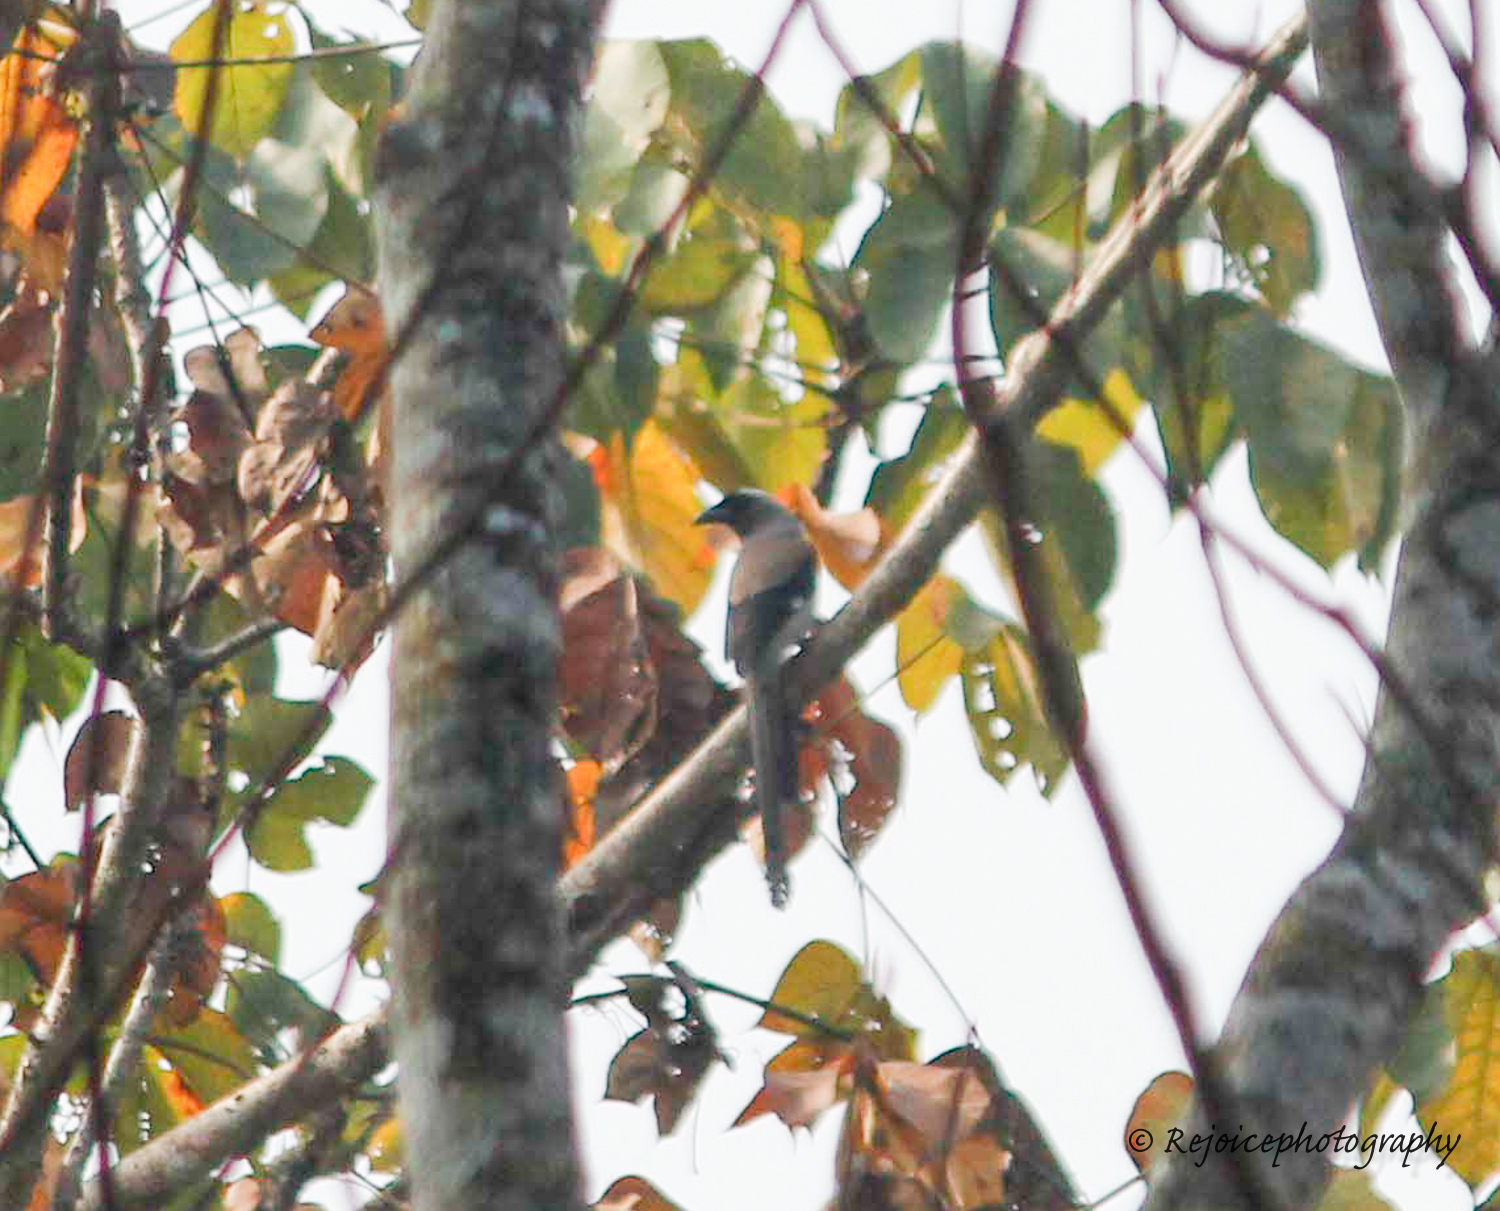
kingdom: Animalia
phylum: Chordata
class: Aves
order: Passeriformes
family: Corvidae
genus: Dendrocitta
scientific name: Dendrocitta formosae
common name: Grey treepie
